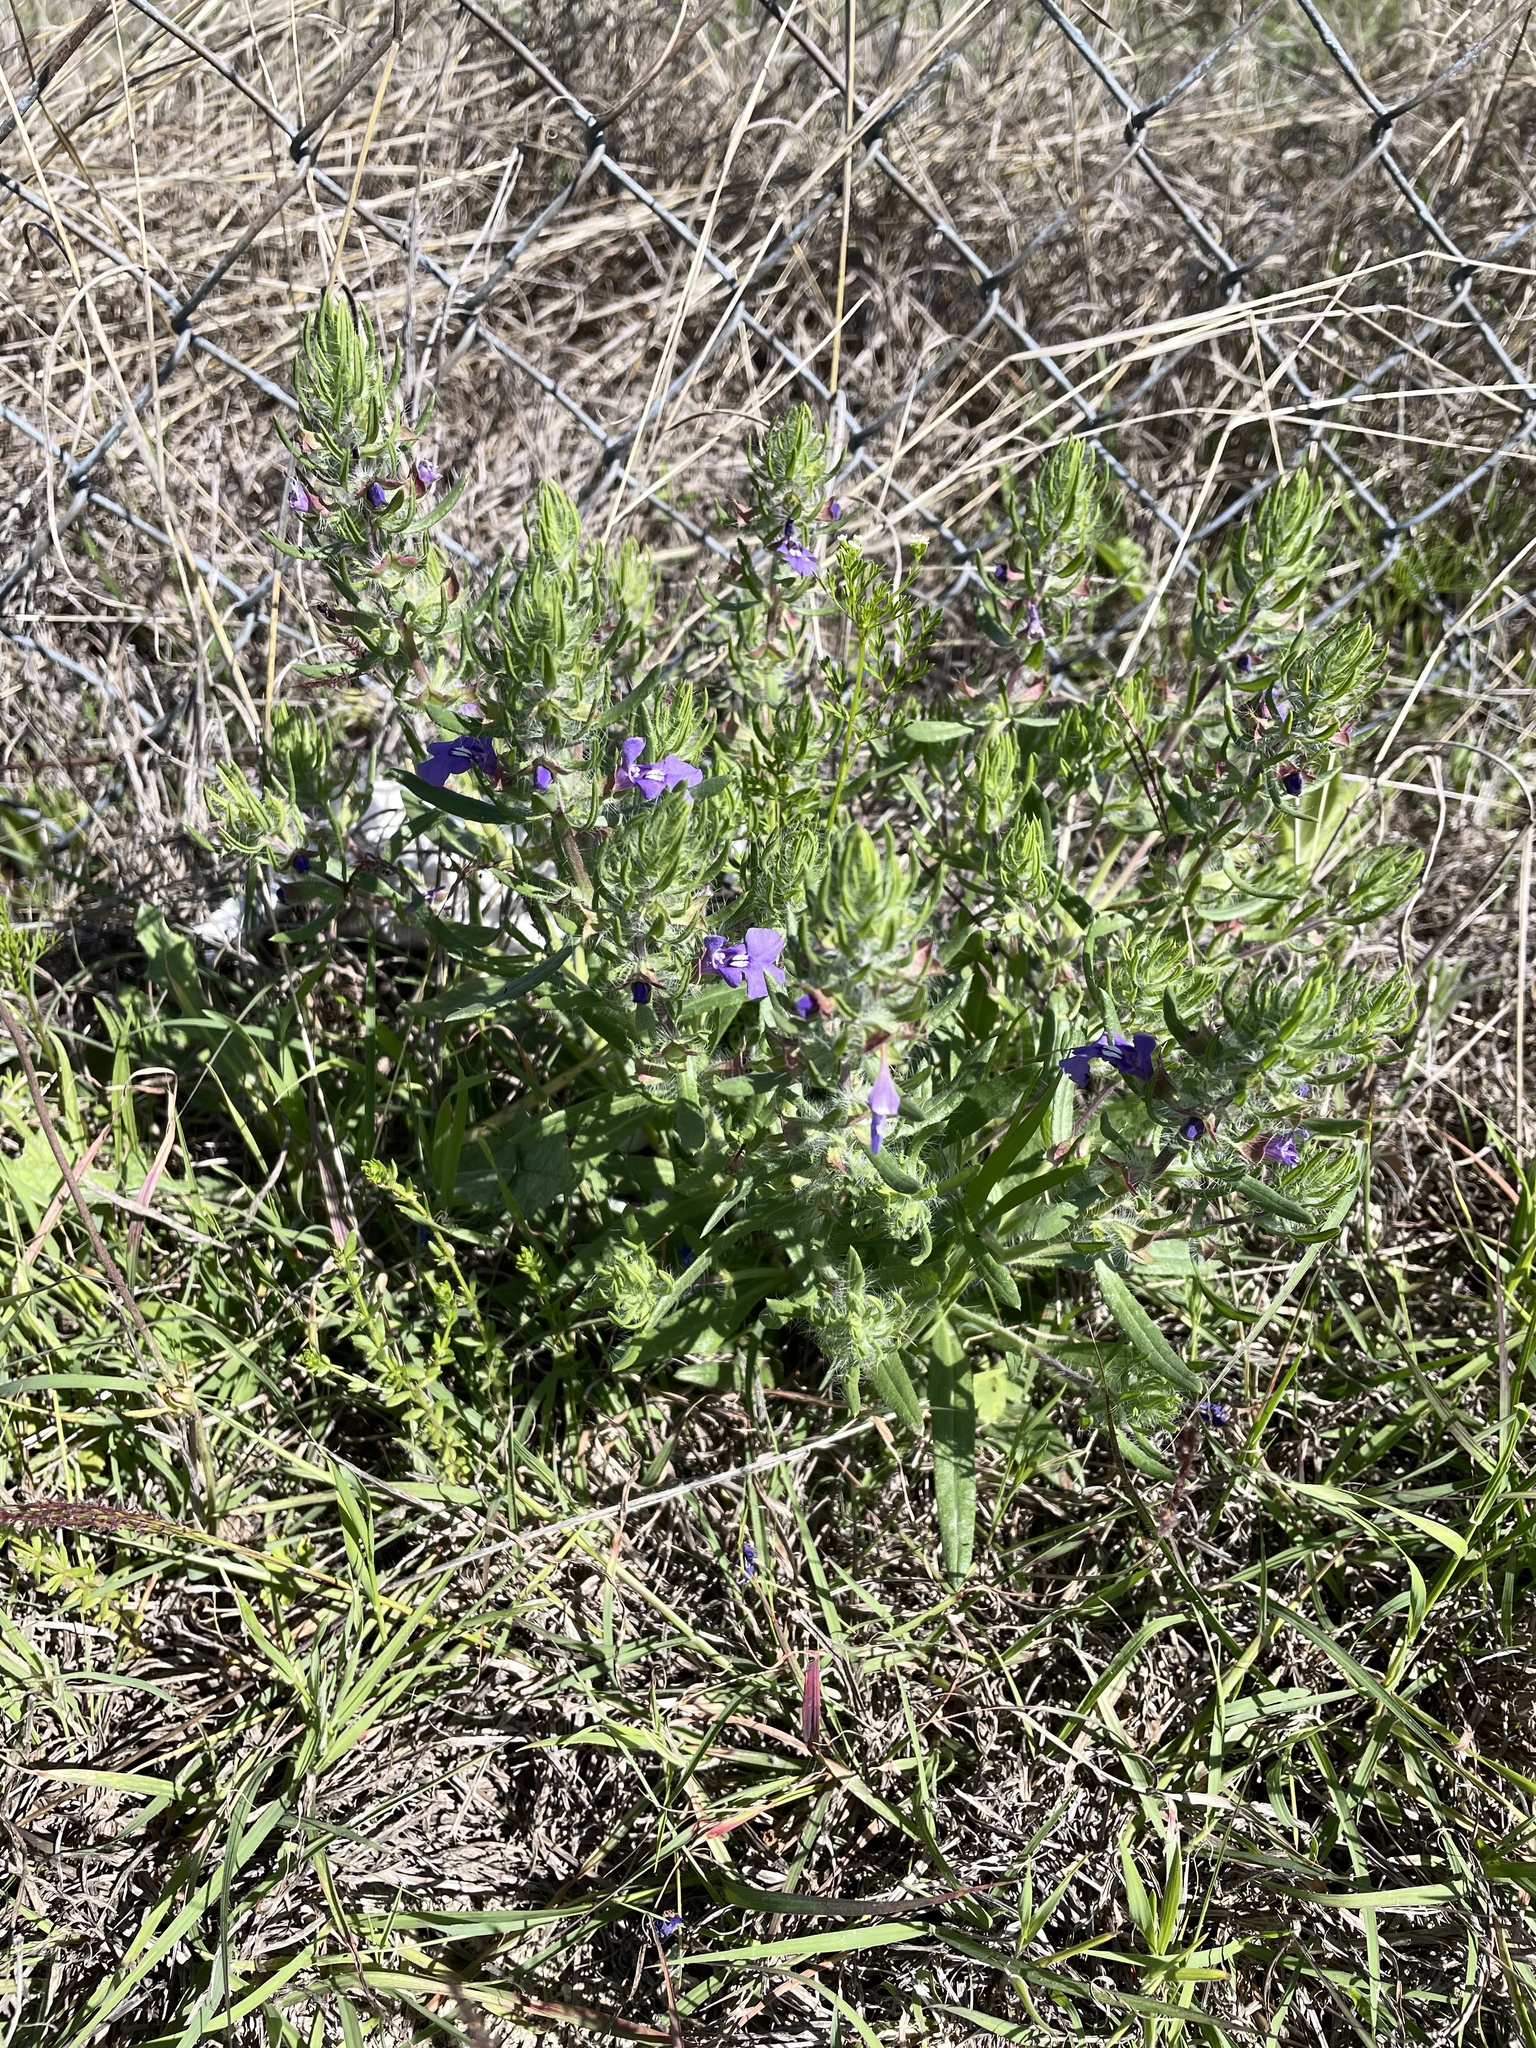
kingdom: Plantae
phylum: Tracheophyta
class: Magnoliopsida
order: Lamiales
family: Lamiaceae
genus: Salvia
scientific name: Salvia texana
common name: Texas sage
